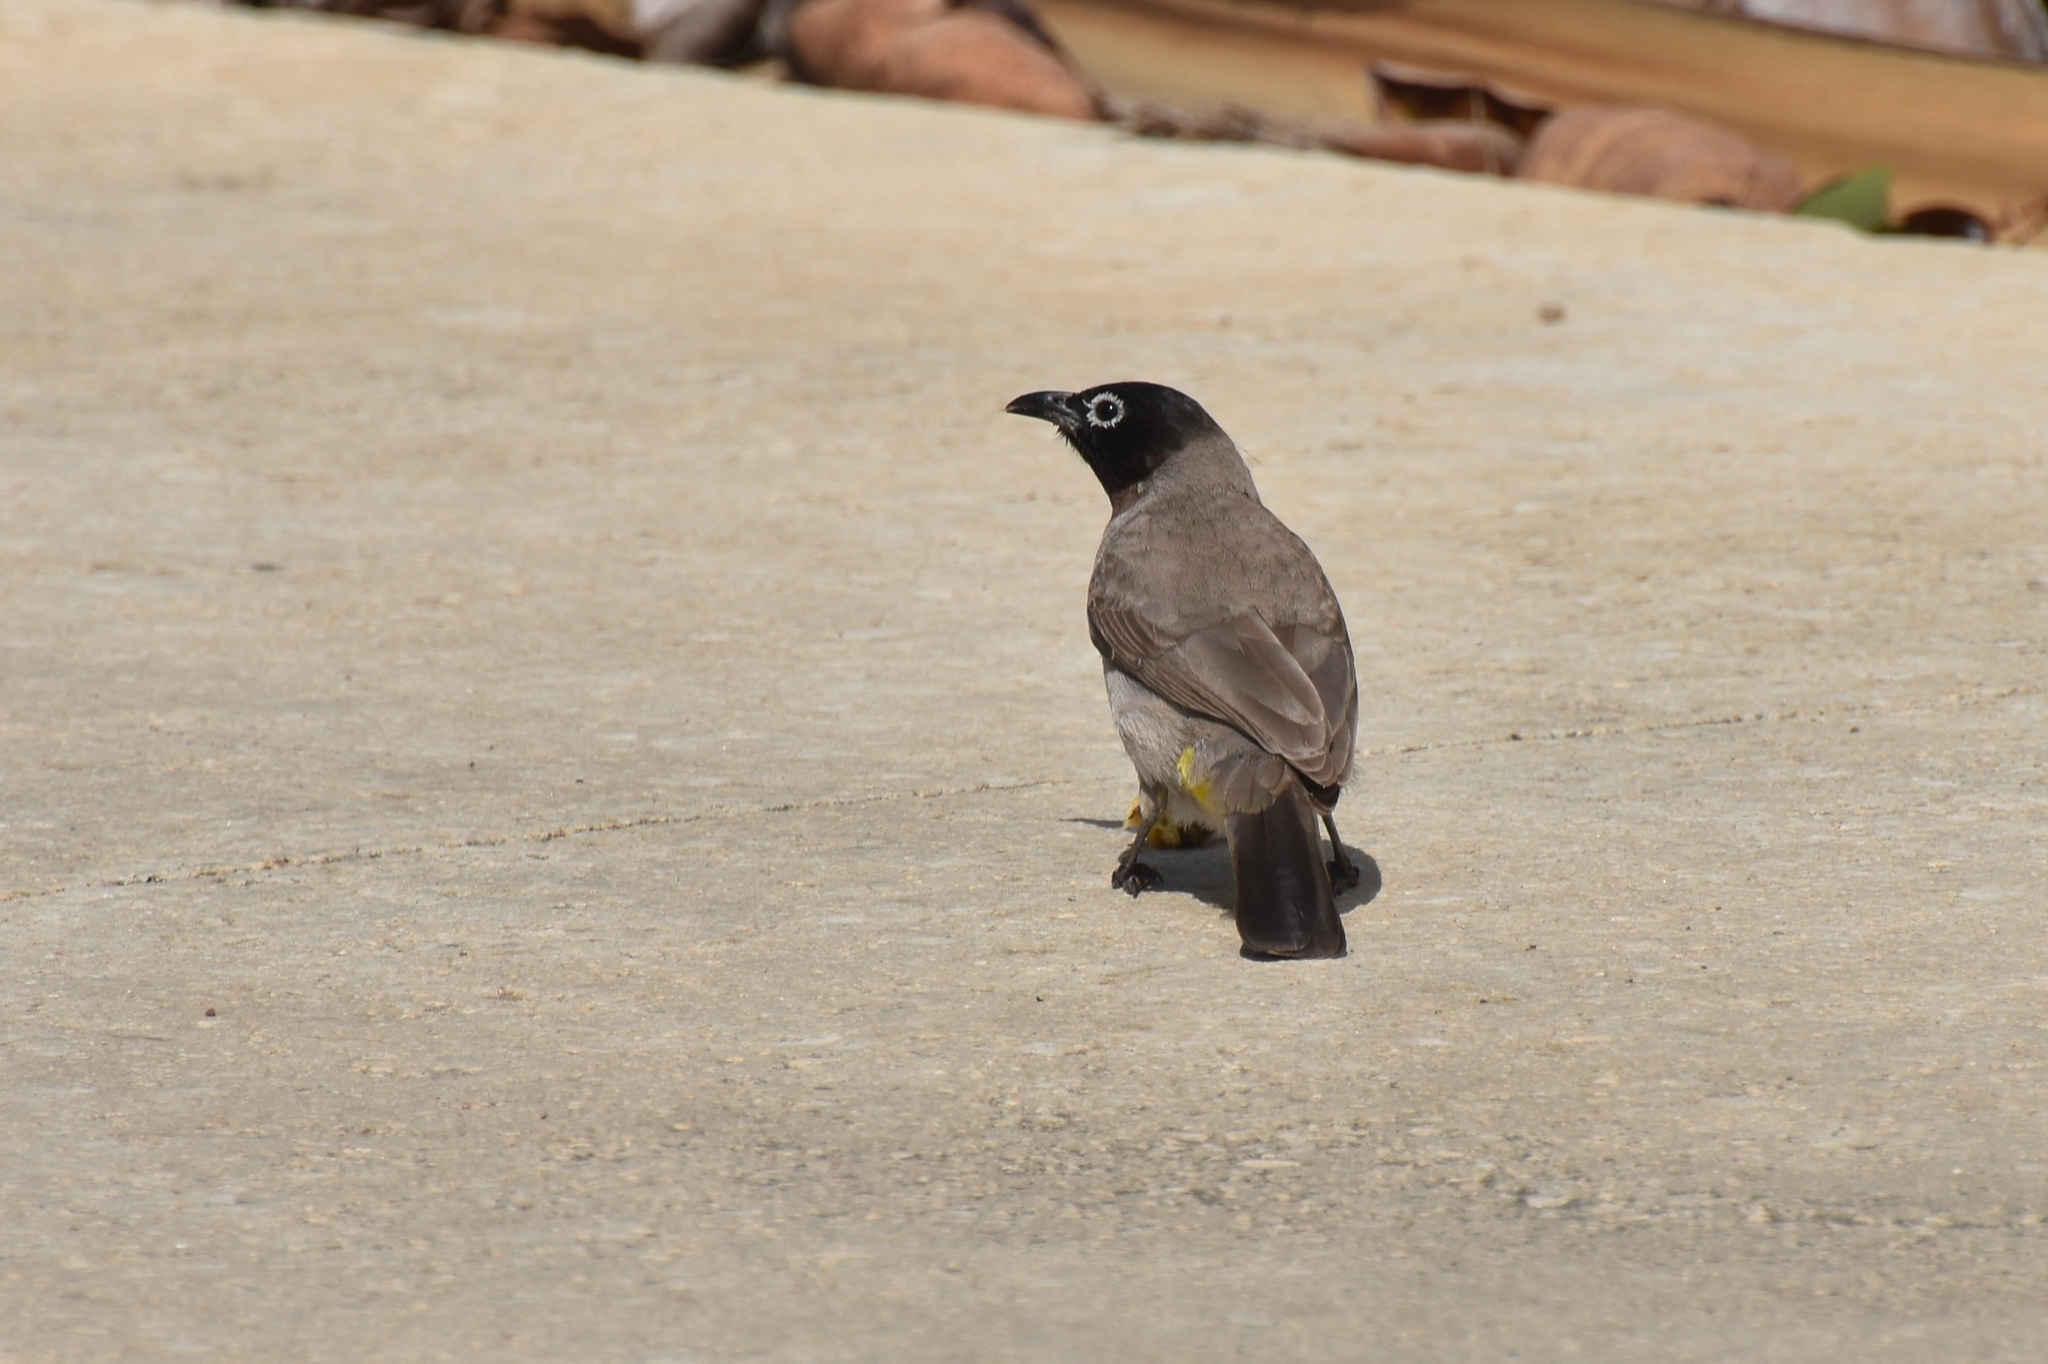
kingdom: Animalia
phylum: Chordata
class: Aves
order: Passeriformes
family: Pycnonotidae
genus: Pycnonotus
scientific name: Pycnonotus xanthopygos
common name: White-spectacled bulbul
